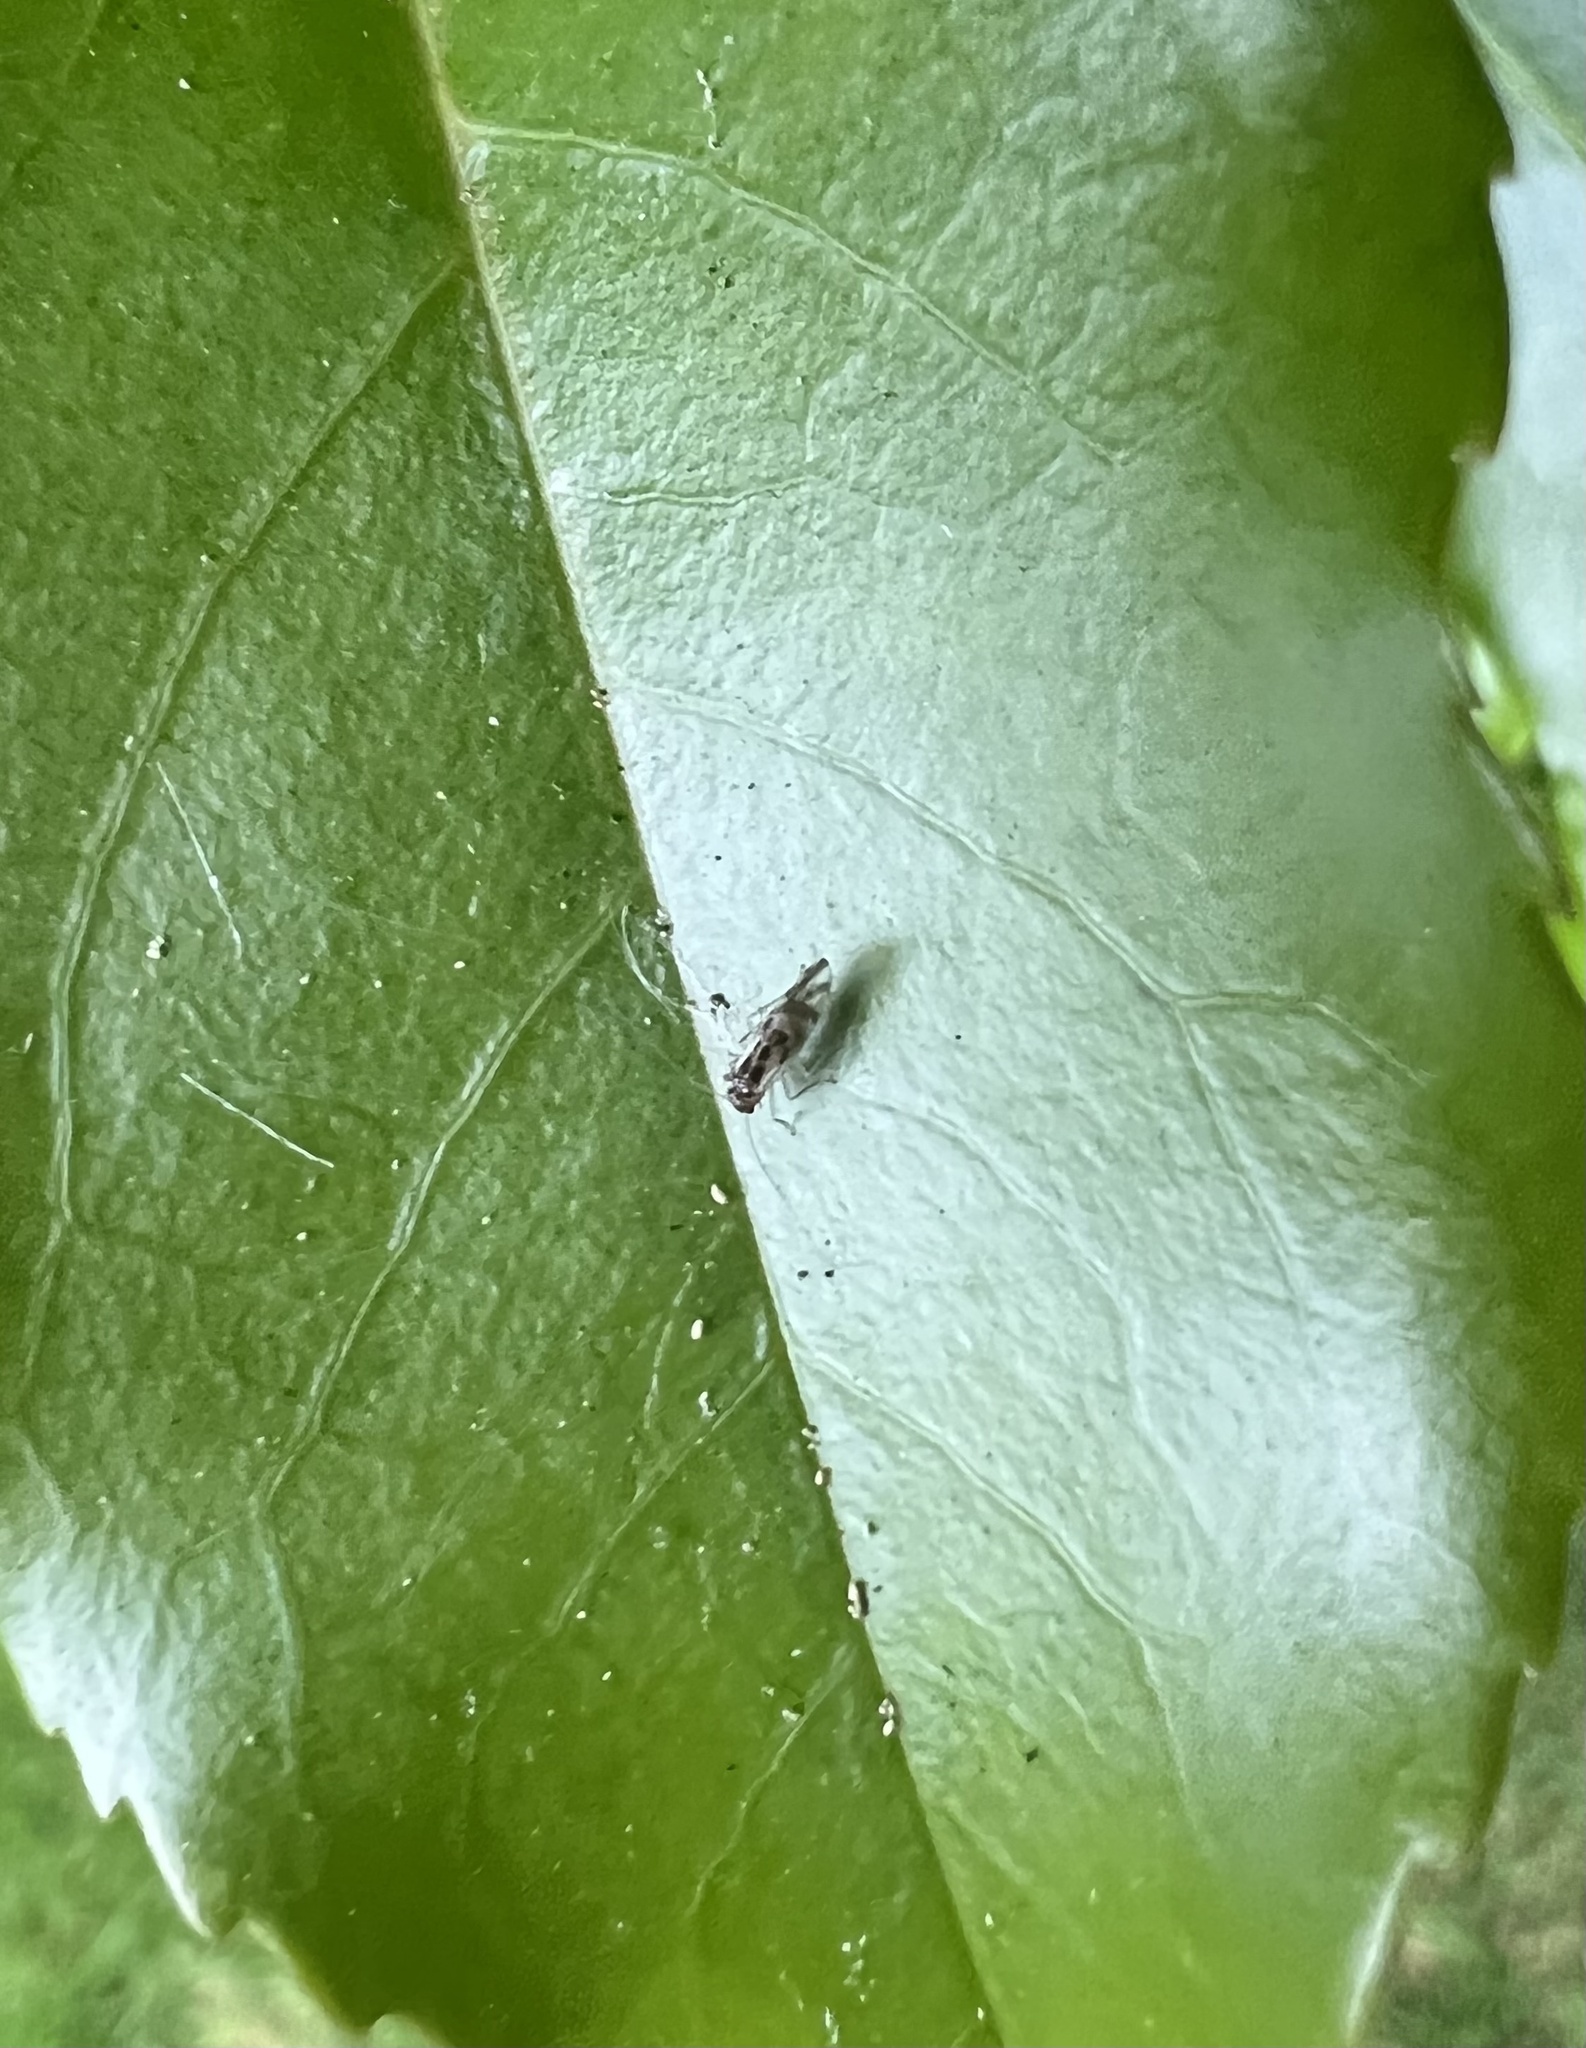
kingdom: Animalia
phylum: Arthropoda
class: Insecta
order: Psocodea
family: Stenopsocidae
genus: Graphopsocus
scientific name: Graphopsocus cruciatus
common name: Lizard bark louse
